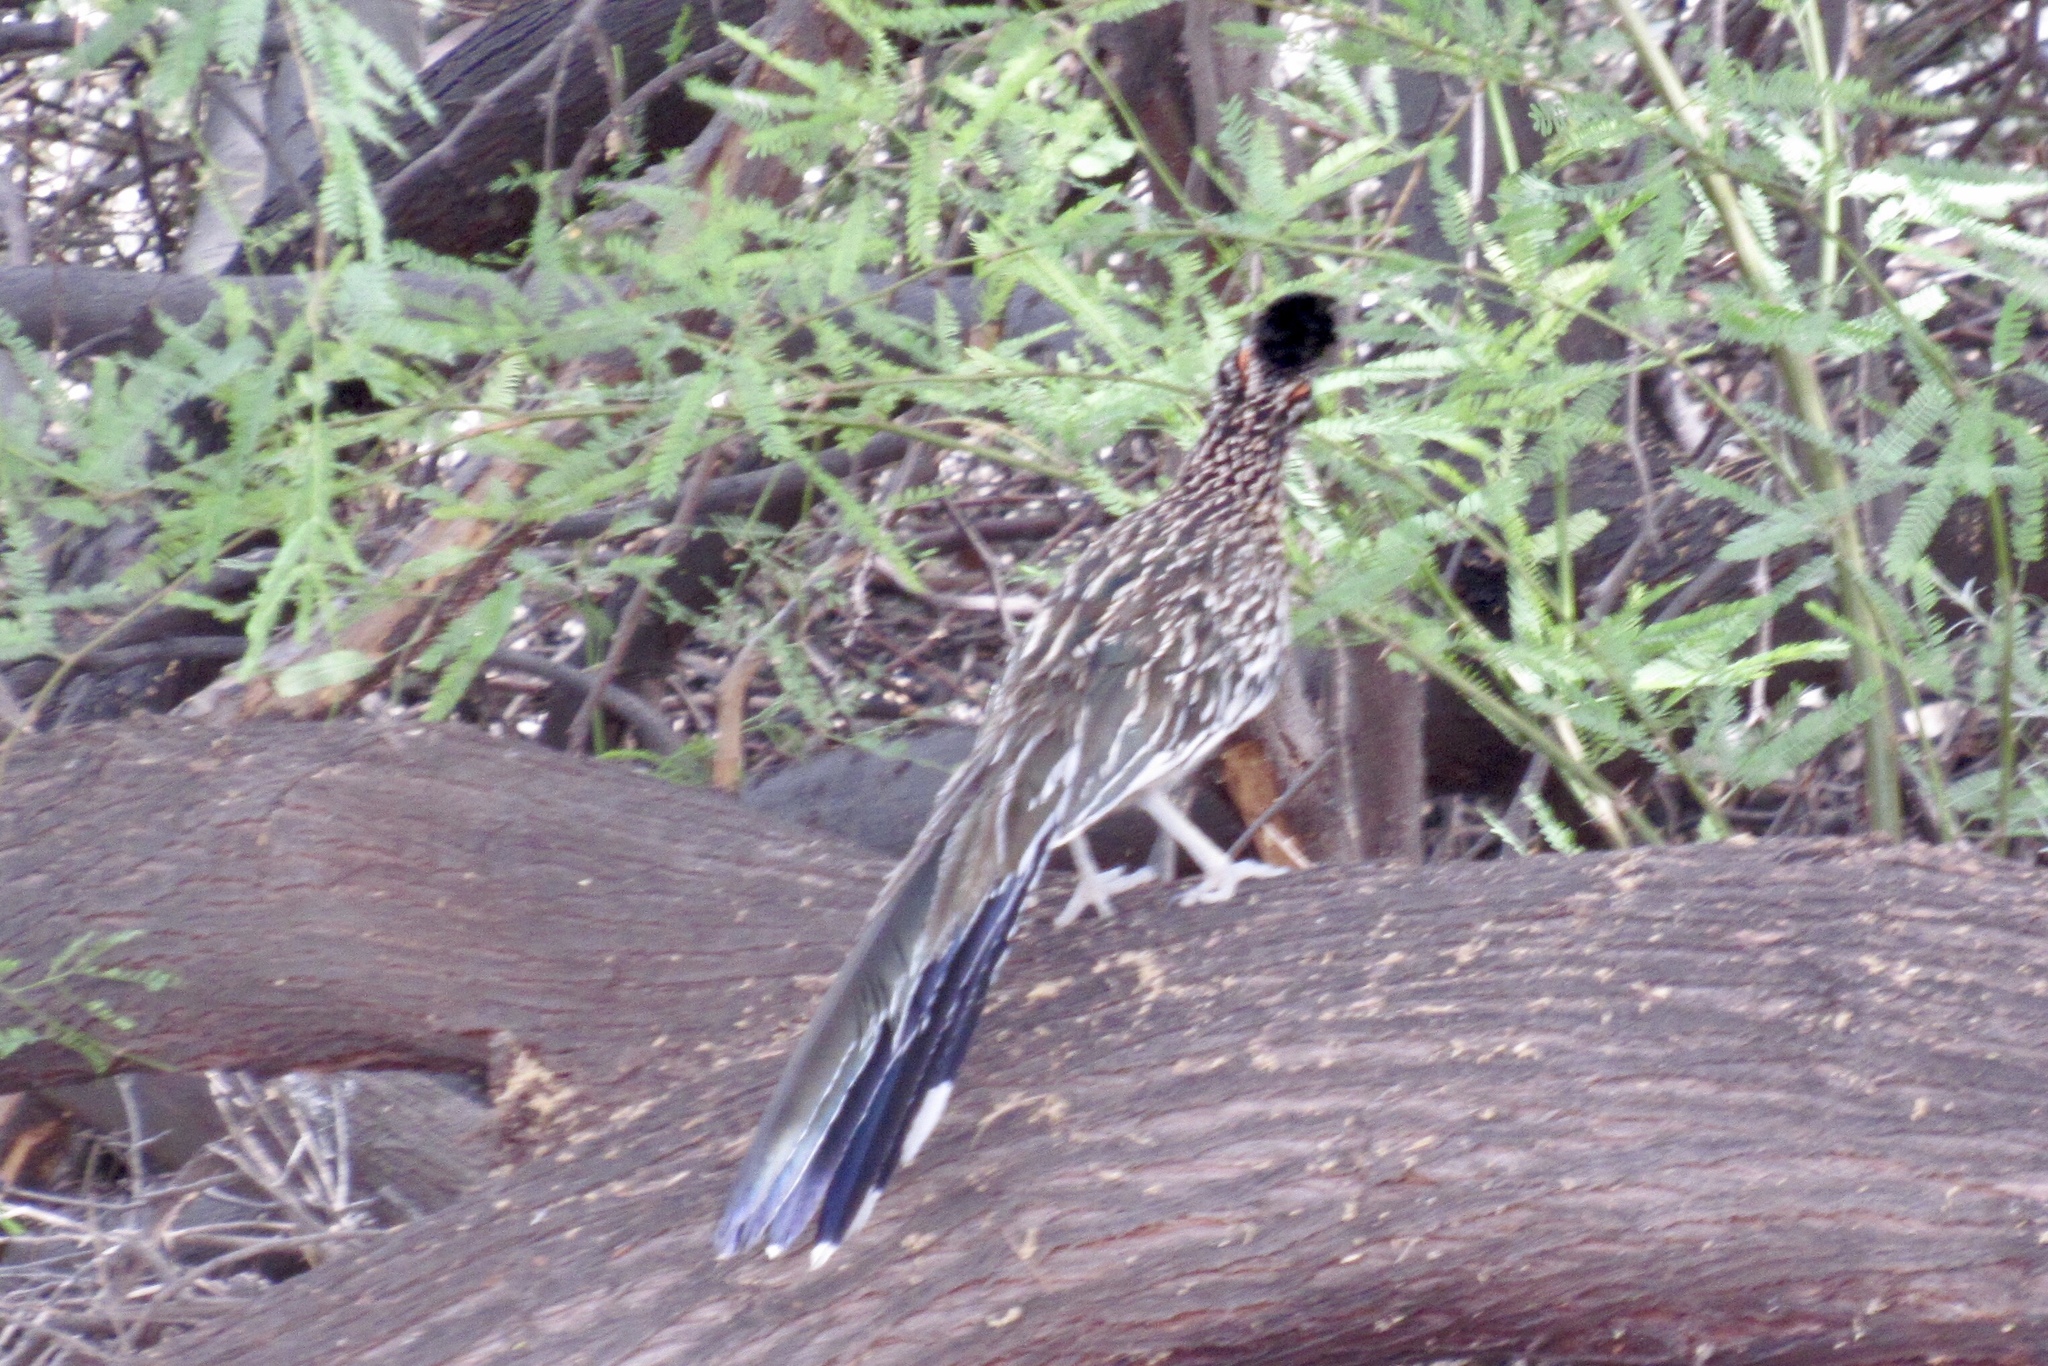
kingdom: Animalia
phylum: Chordata
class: Aves
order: Cuculiformes
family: Cuculidae
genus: Geococcyx
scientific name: Geococcyx californianus
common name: Greater roadrunner
